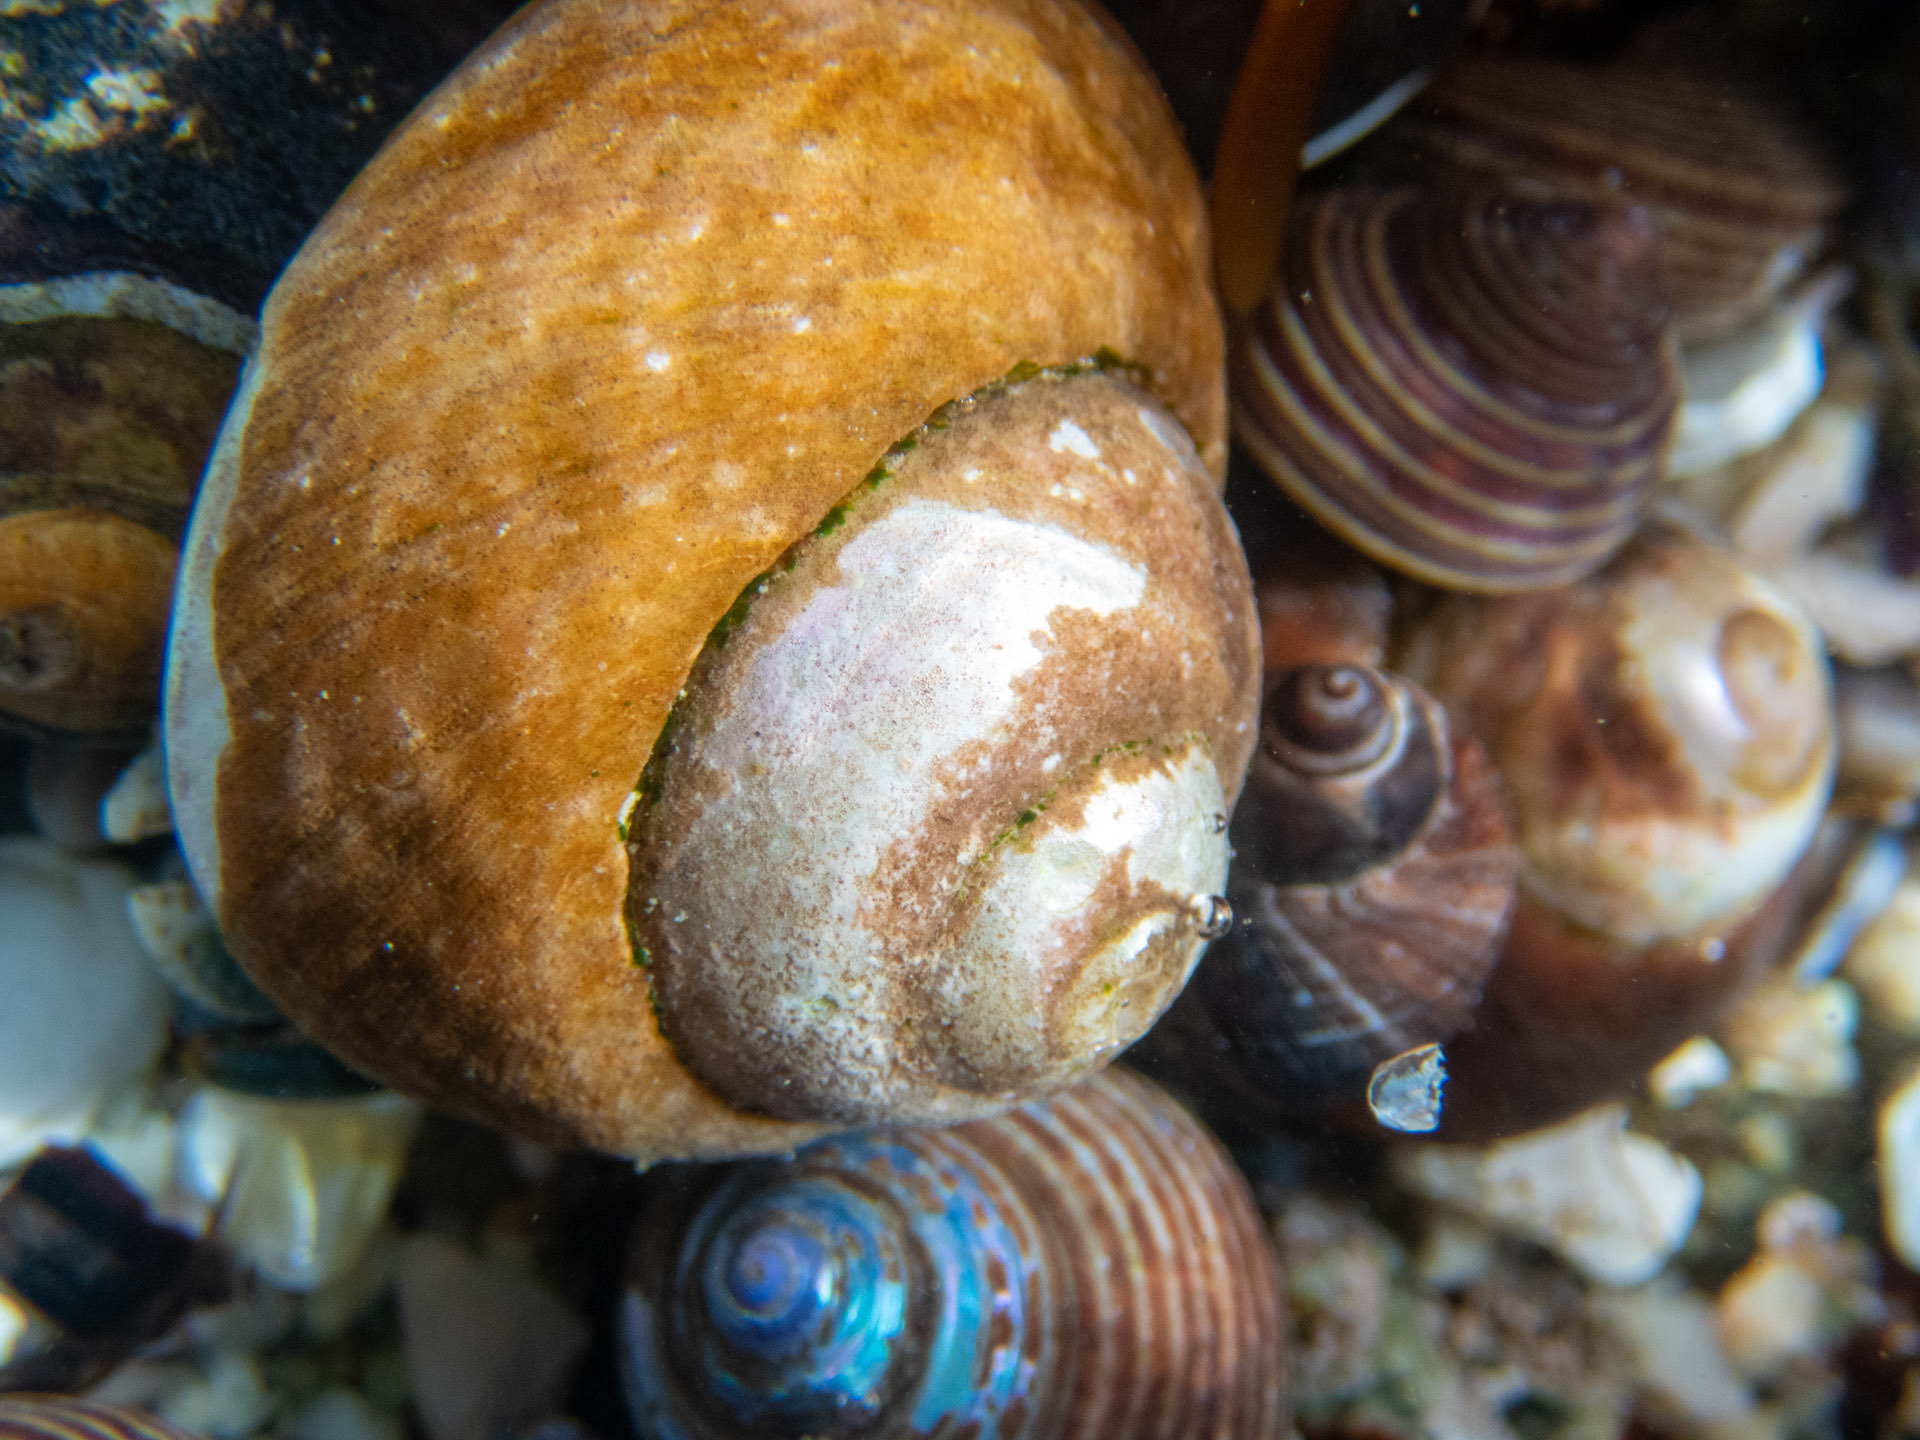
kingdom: Animalia
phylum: Mollusca
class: Gastropoda
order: Trochida
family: Tegulidae
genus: Tegula
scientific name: Tegula brunnea
